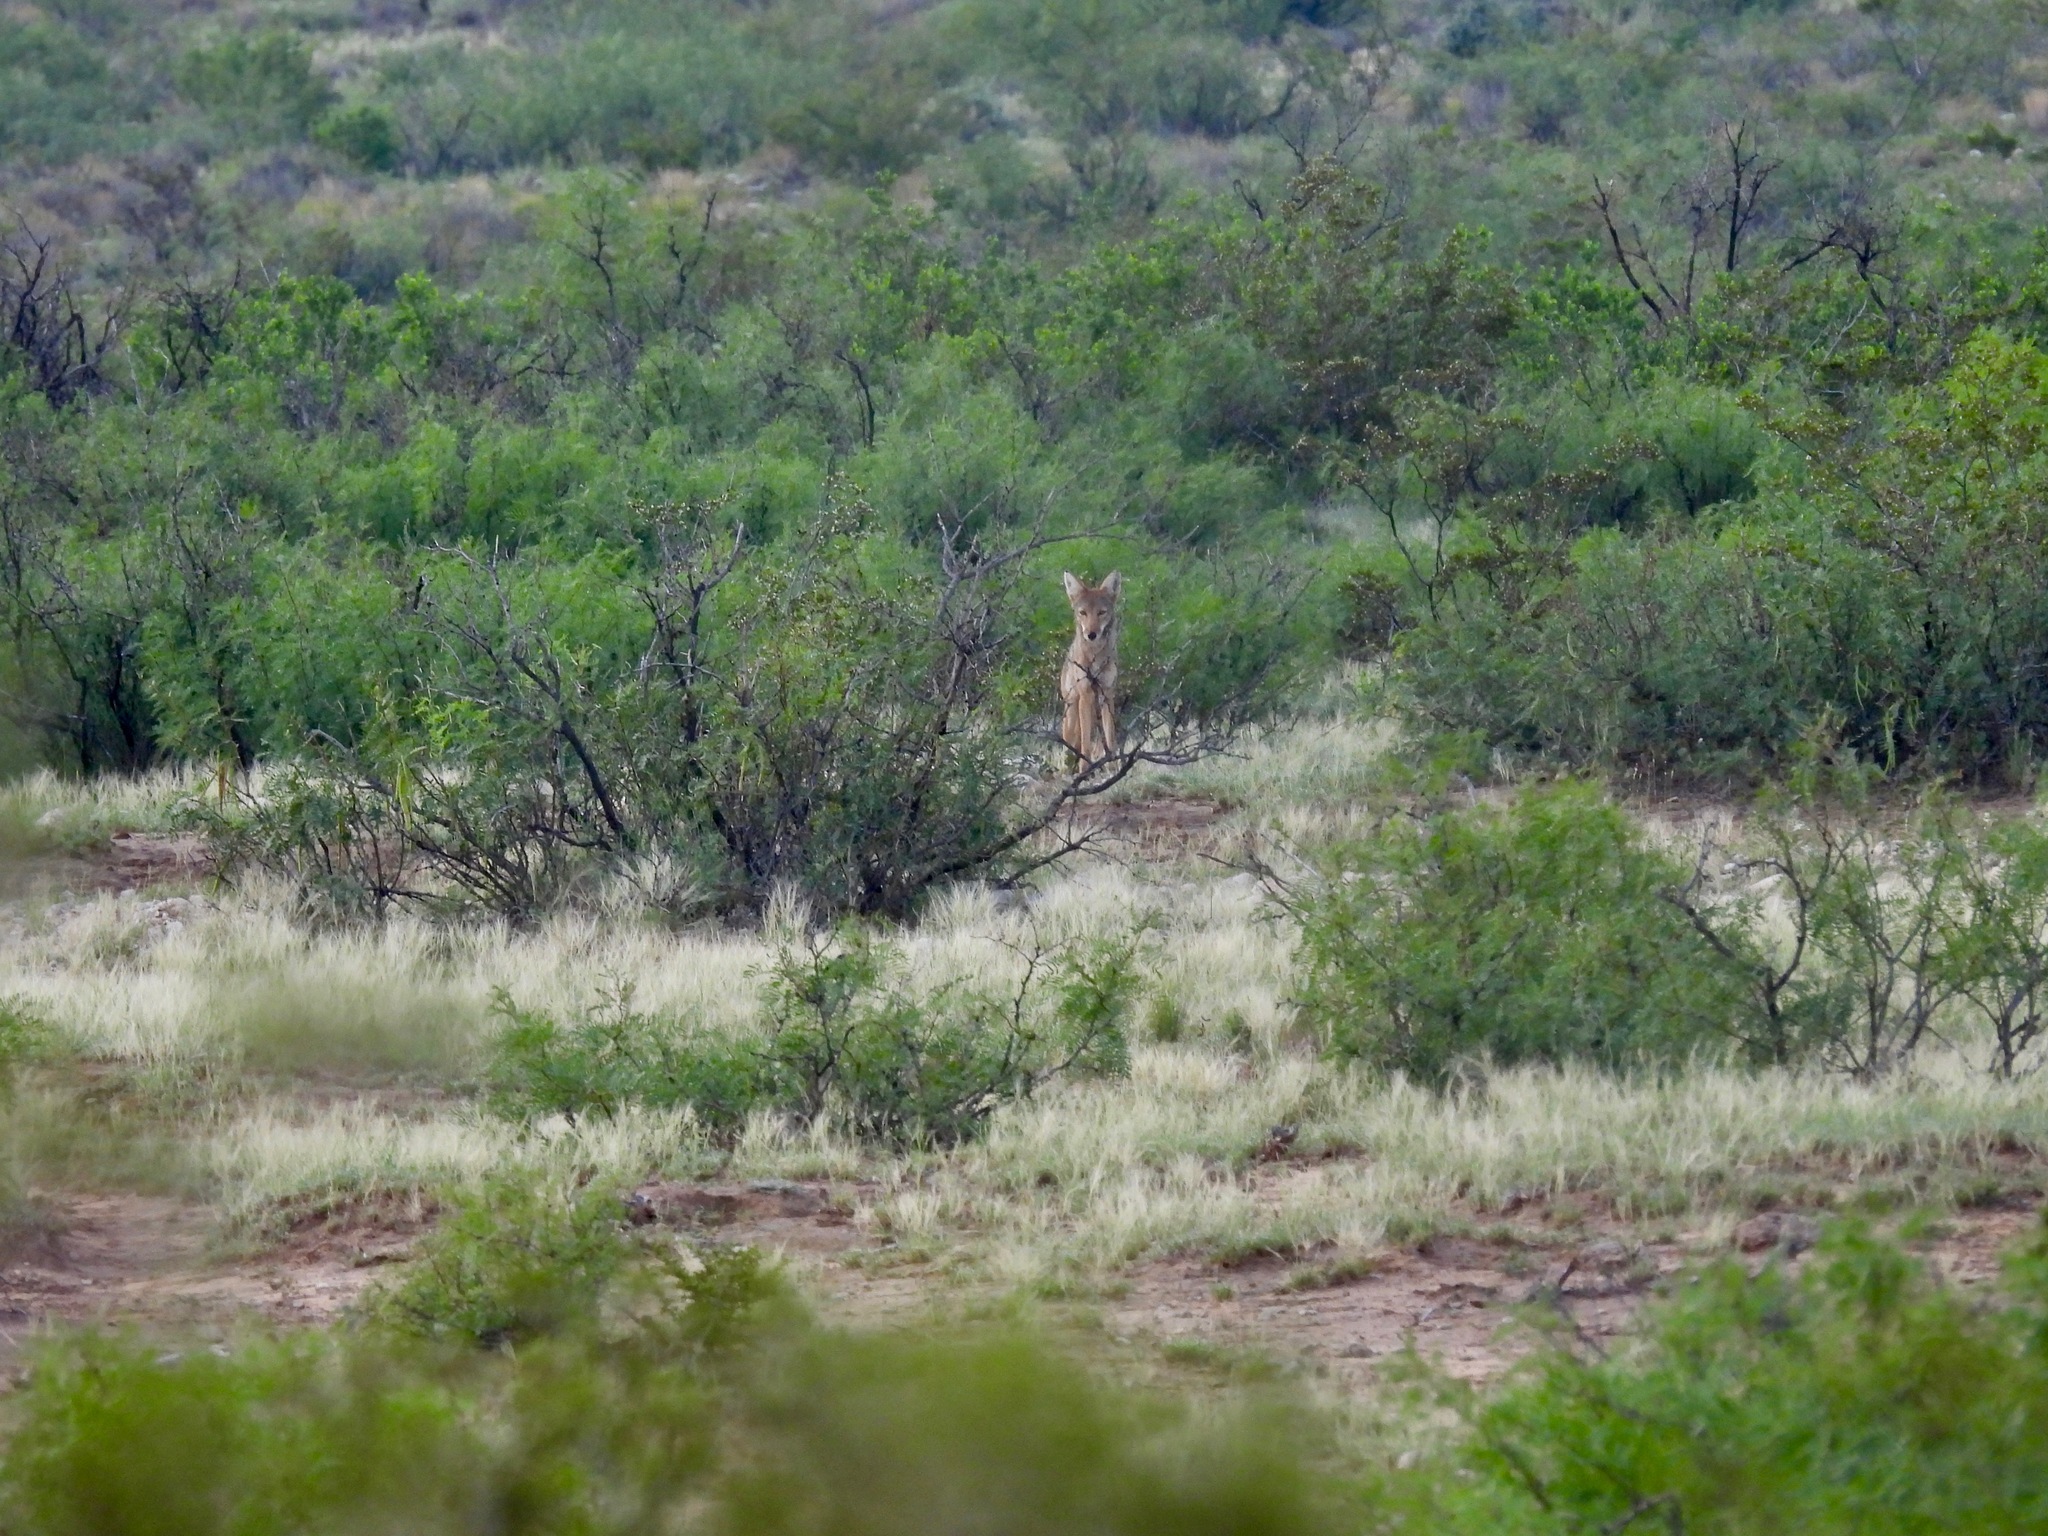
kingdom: Animalia
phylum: Chordata
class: Mammalia
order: Carnivora
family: Canidae
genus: Canis
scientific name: Canis latrans
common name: Coyote
